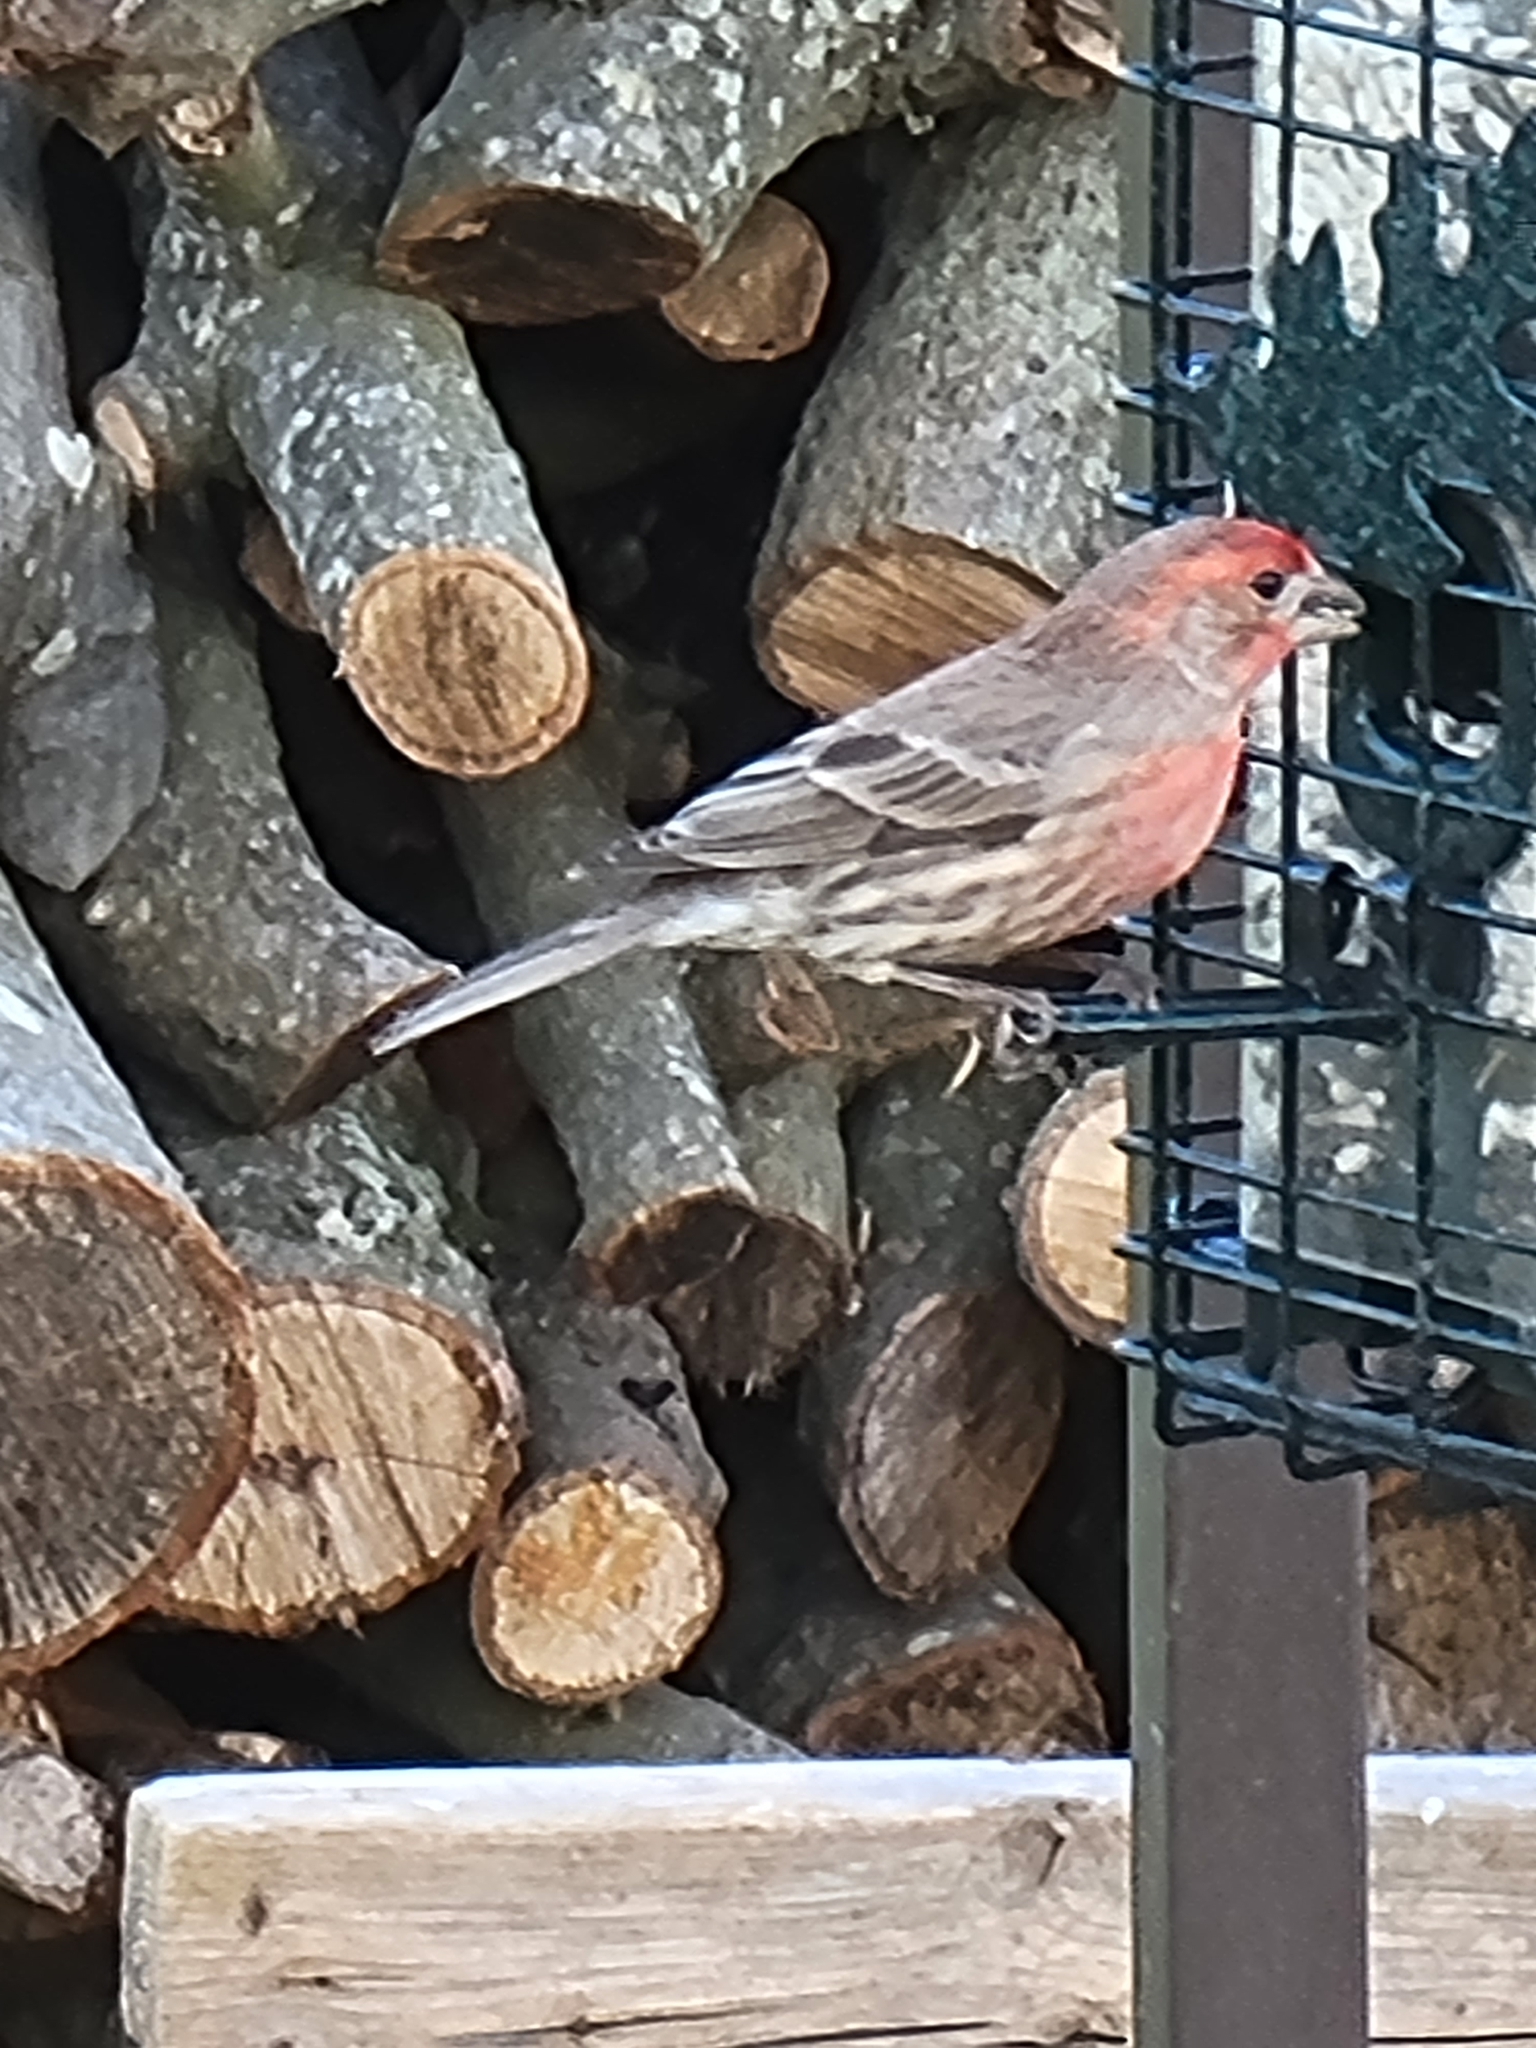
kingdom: Animalia
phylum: Chordata
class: Aves
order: Passeriformes
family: Fringillidae
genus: Haemorhous
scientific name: Haemorhous mexicanus
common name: House finch
